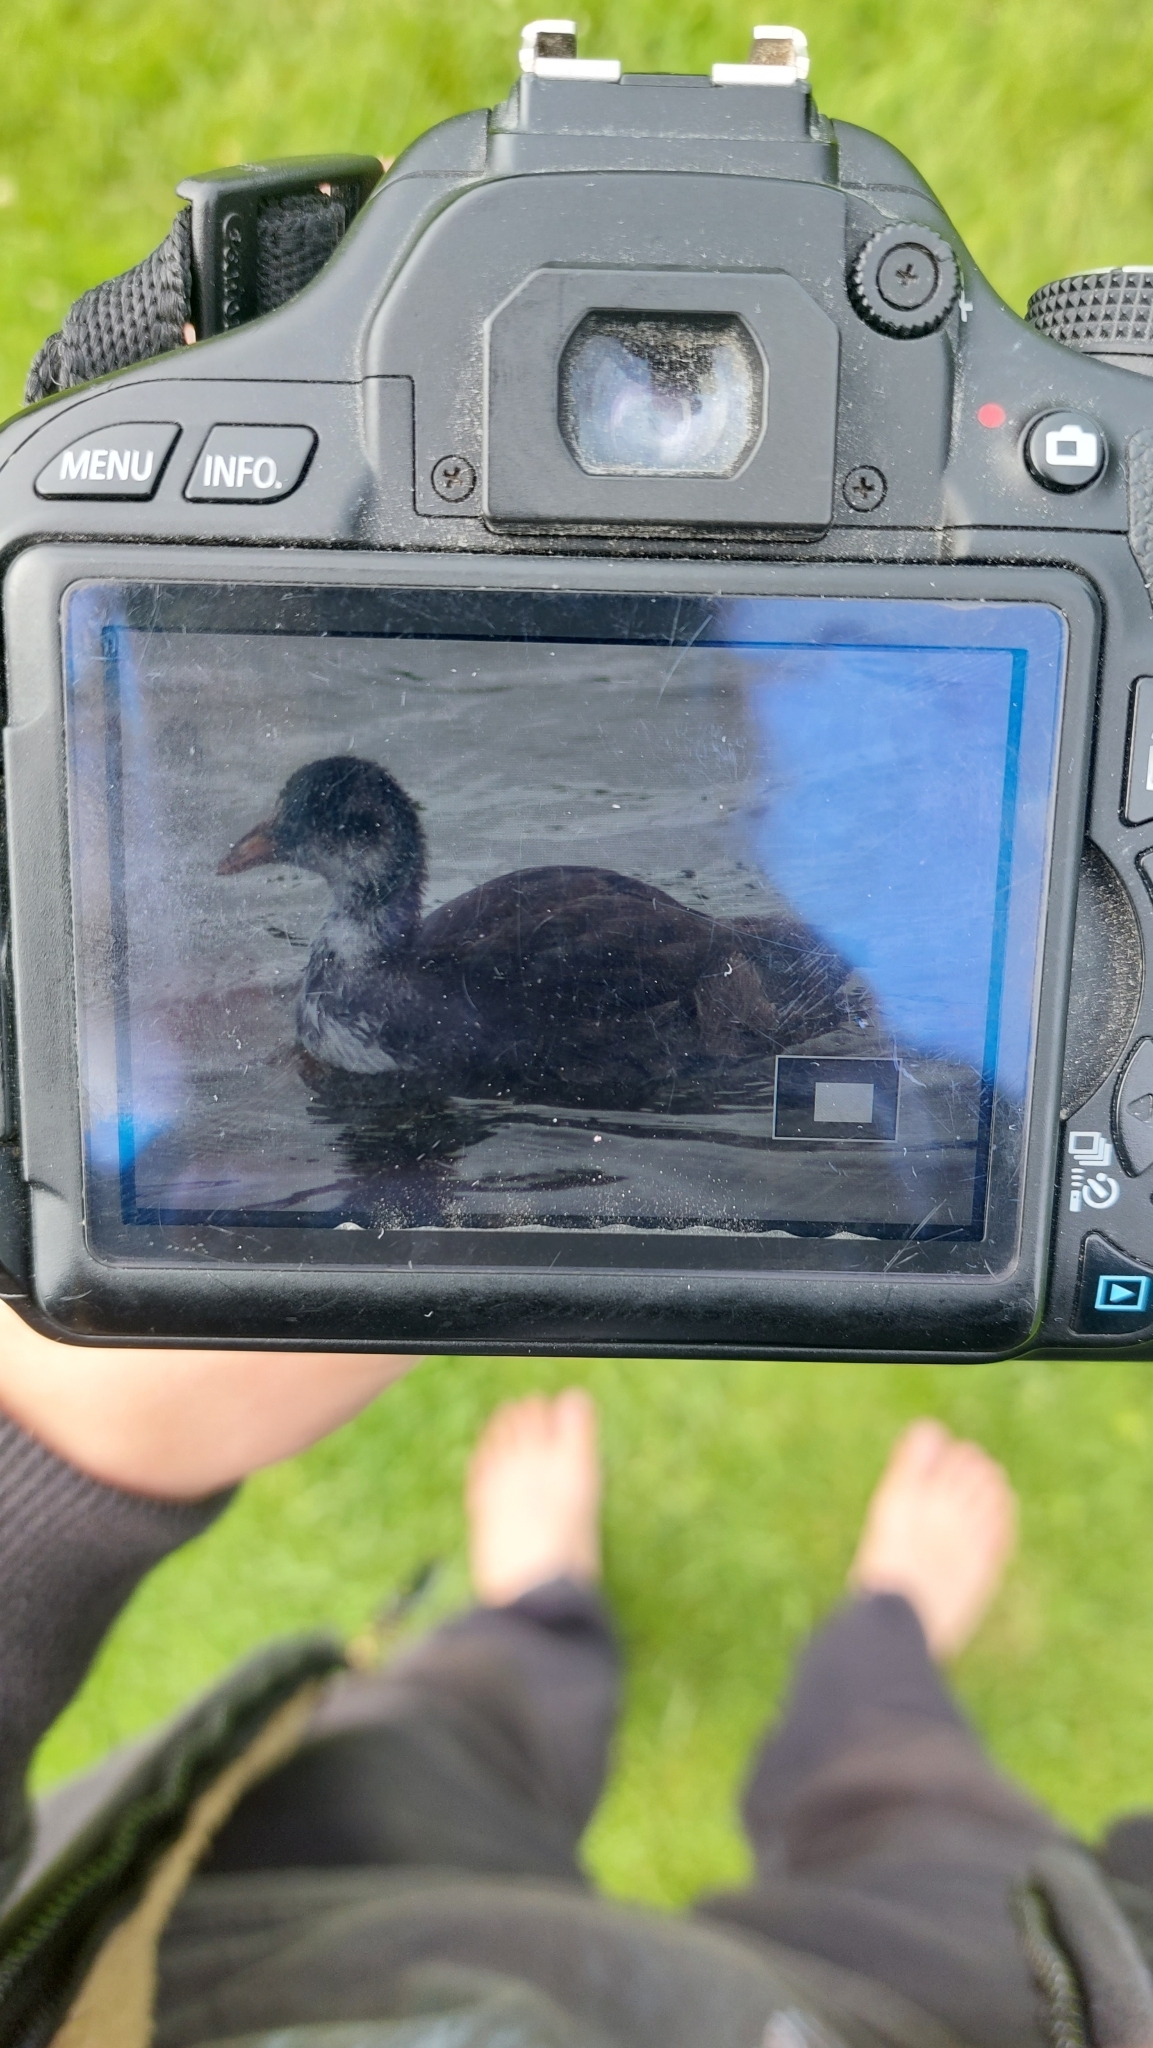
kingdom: Animalia
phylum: Chordata
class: Aves
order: Gruiformes
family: Rallidae
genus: Fulica
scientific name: Fulica atra
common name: Eurasian coot
